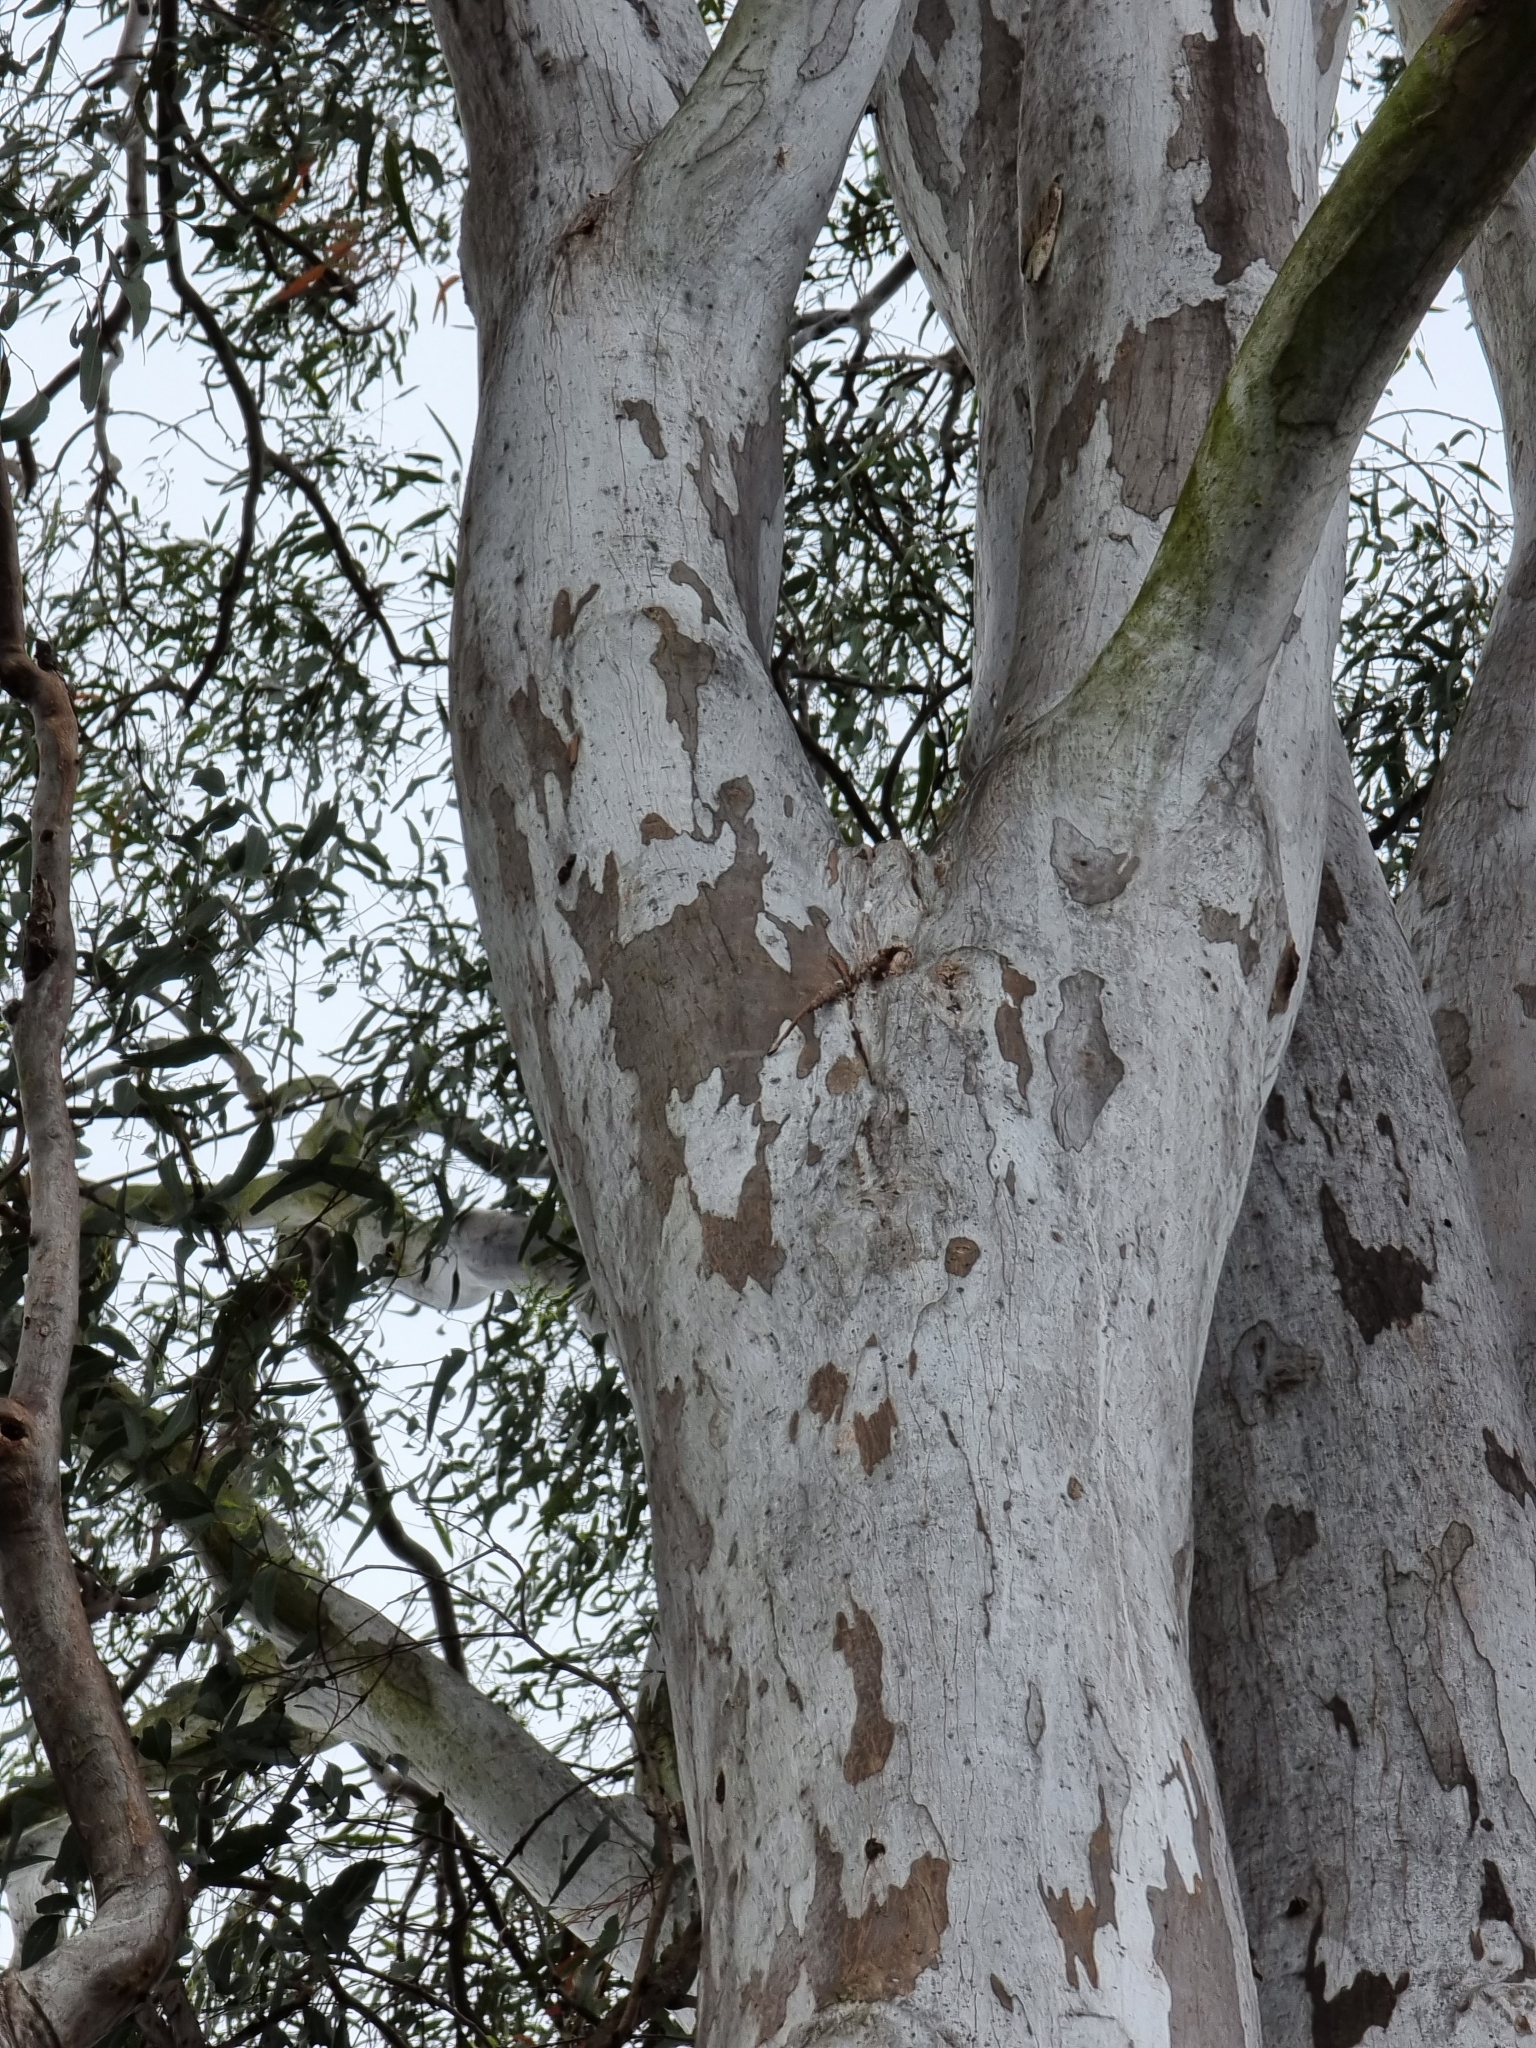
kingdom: Plantae
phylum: Tracheophyta
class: Magnoliopsida
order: Myrtales
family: Myrtaceae
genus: Eucalyptus
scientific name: Eucalyptus tereticornis
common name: Forest redgum
